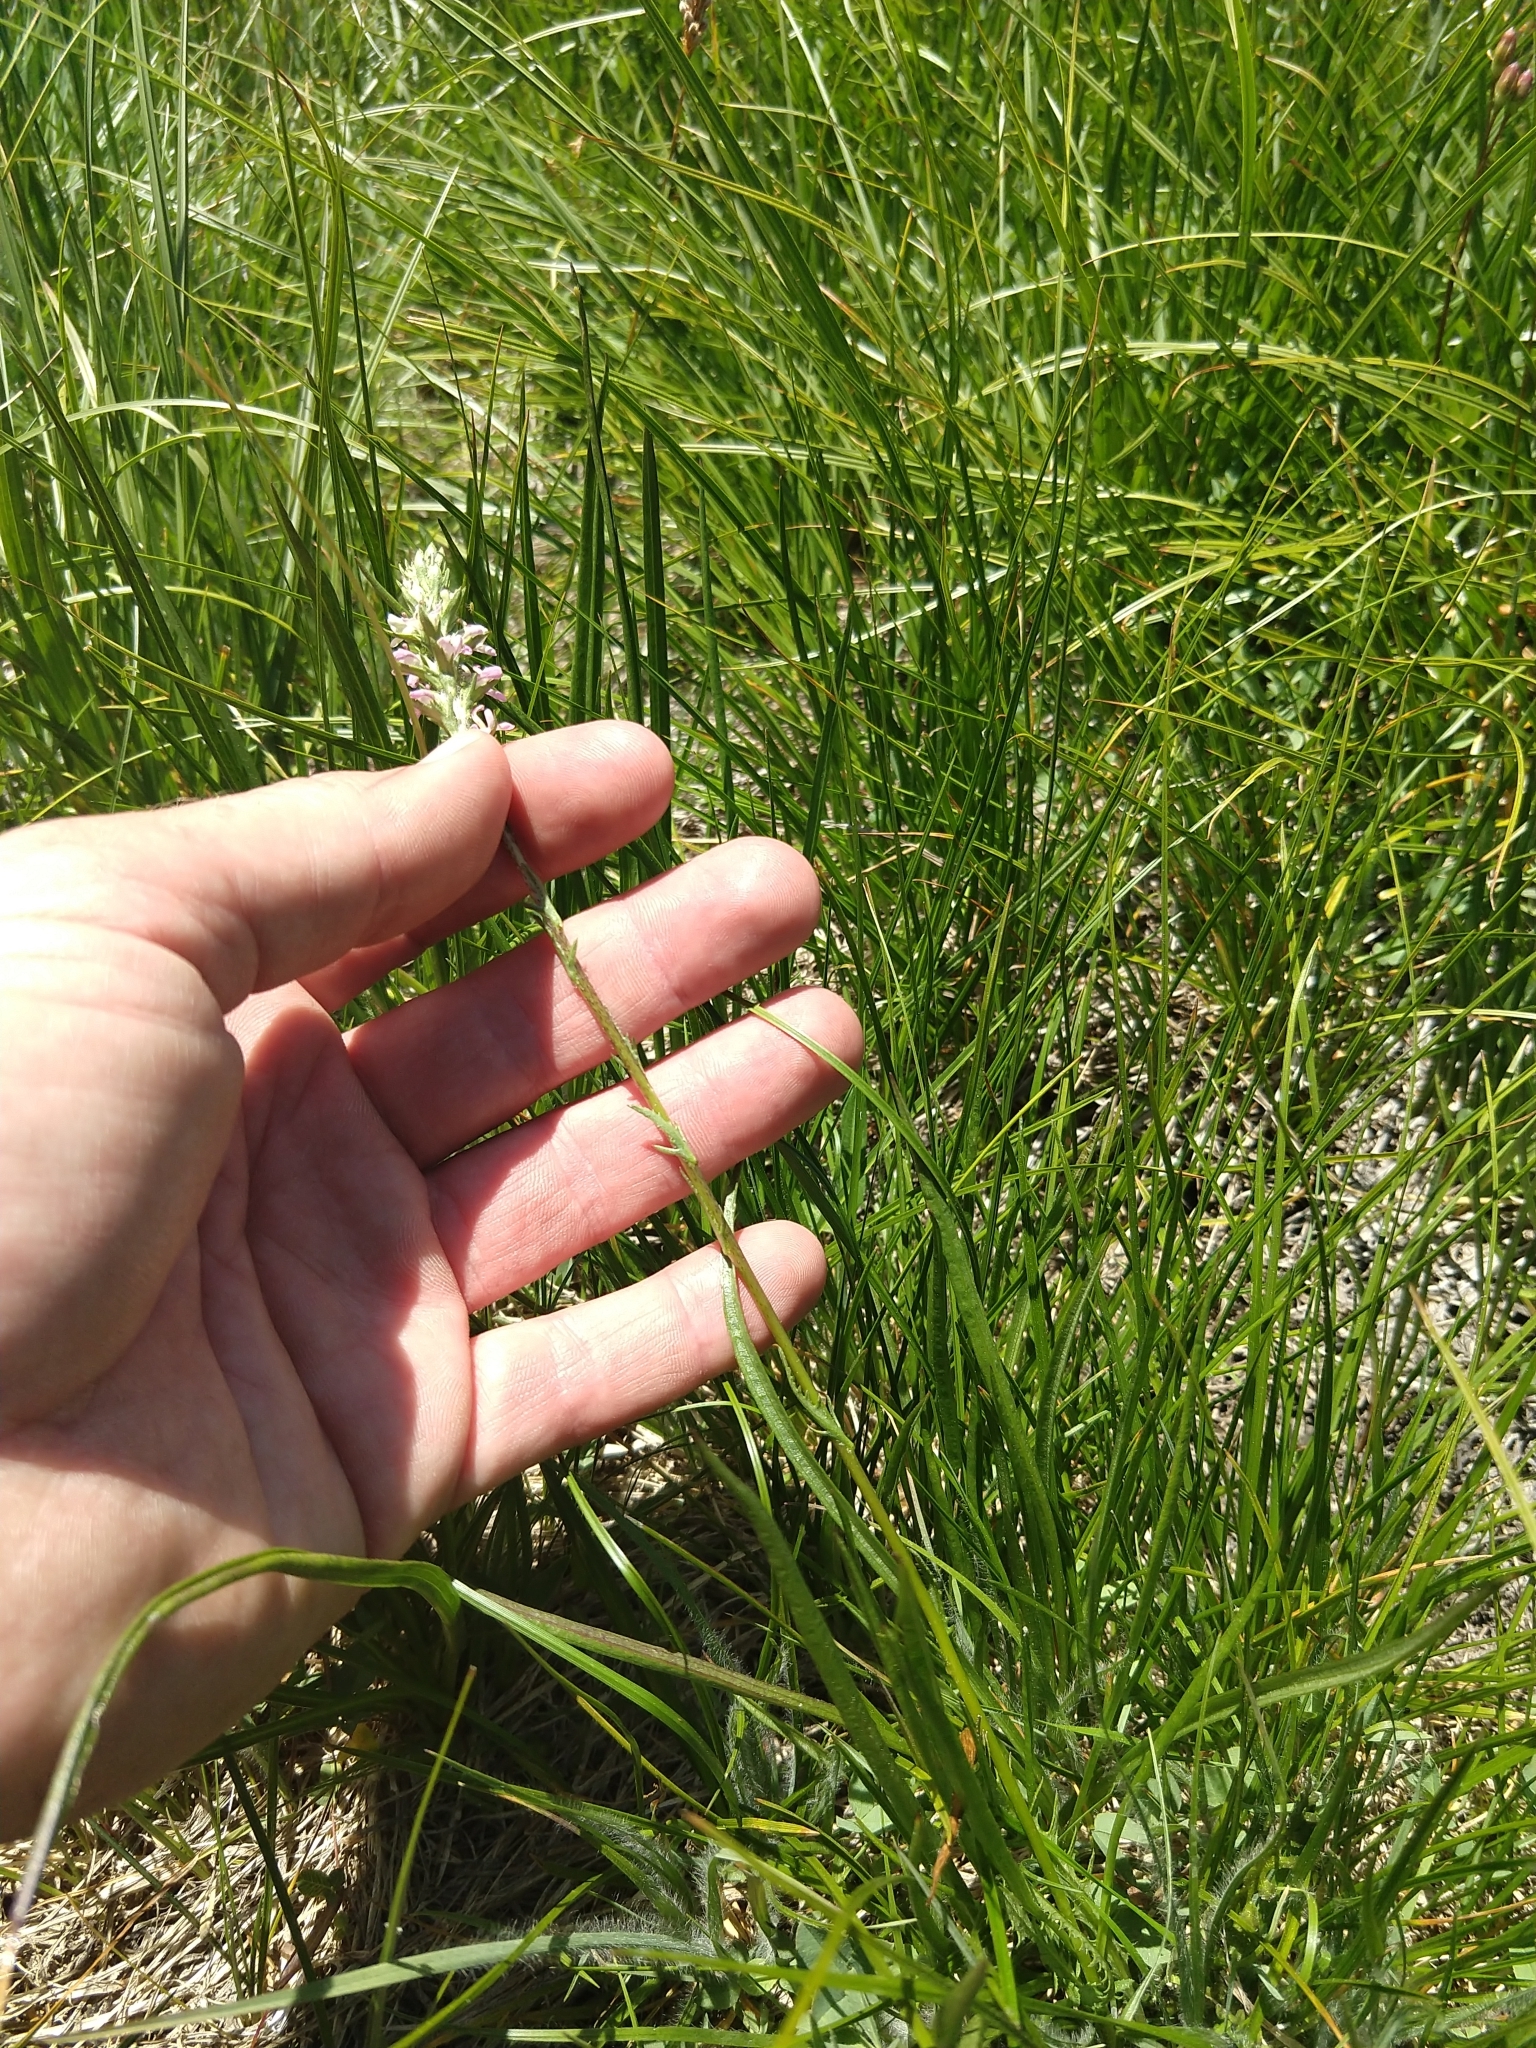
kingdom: Plantae
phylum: Tracheophyta
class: Magnoliopsida
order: Lamiales
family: Orobanchaceae
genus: Pedicularis
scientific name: Pedicularis attollens
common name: Slender pedicularis
